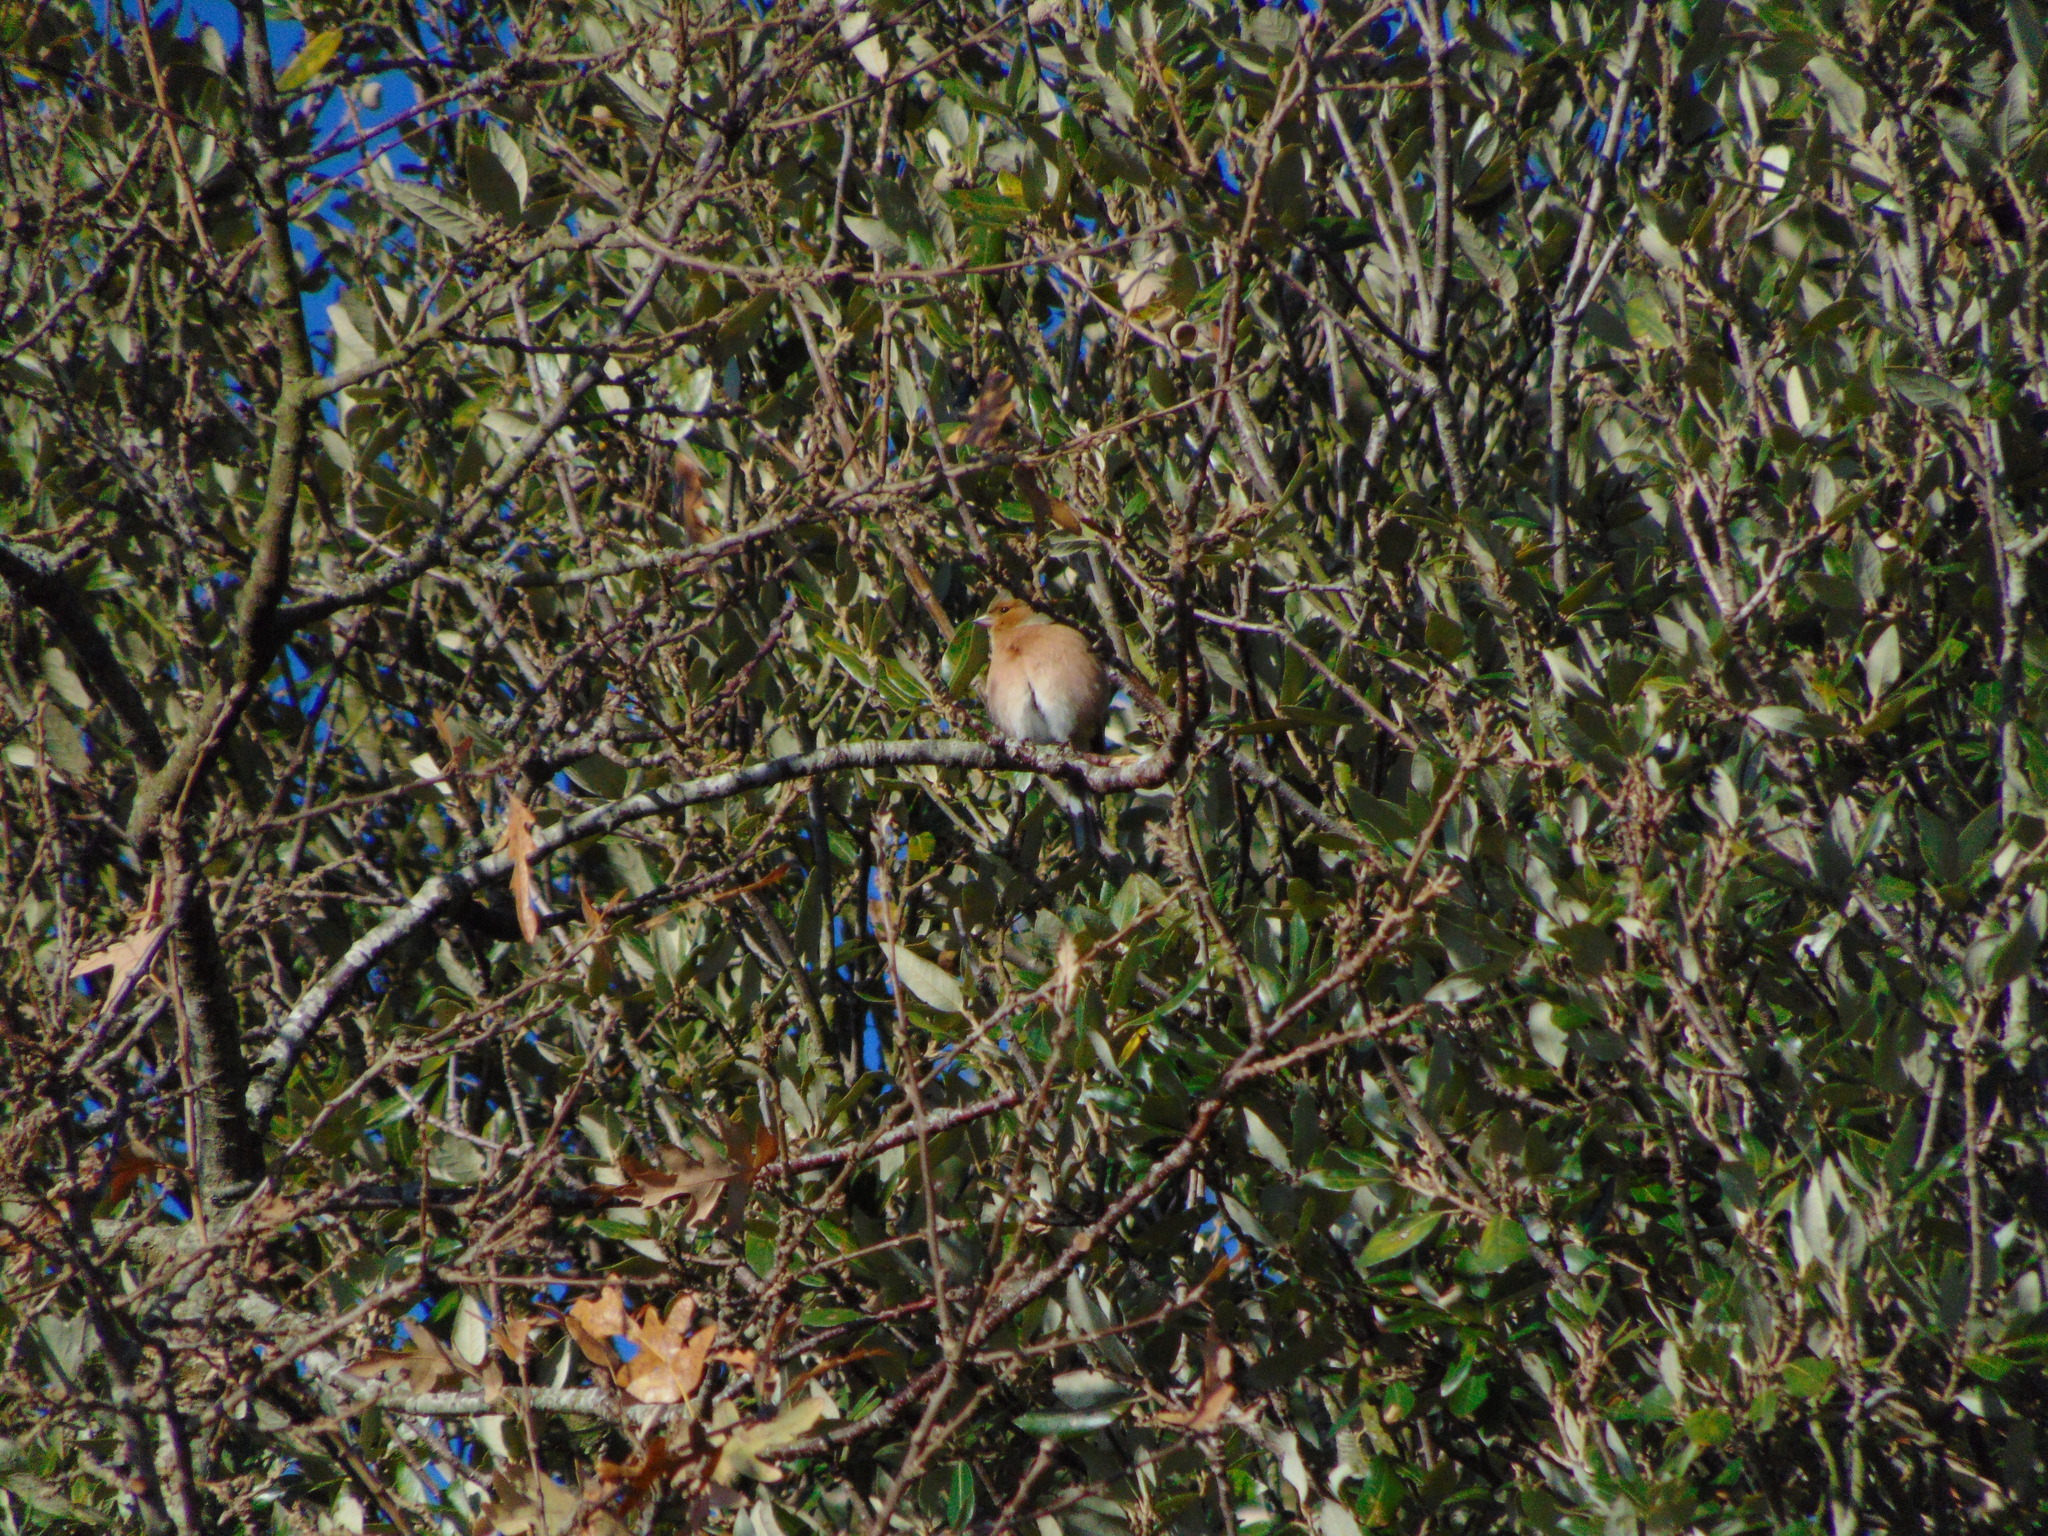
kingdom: Animalia
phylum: Chordata
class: Aves
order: Passeriformes
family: Fringillidae
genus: Fringilla
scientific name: Fringilla coelebs
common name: Common chaffinch
